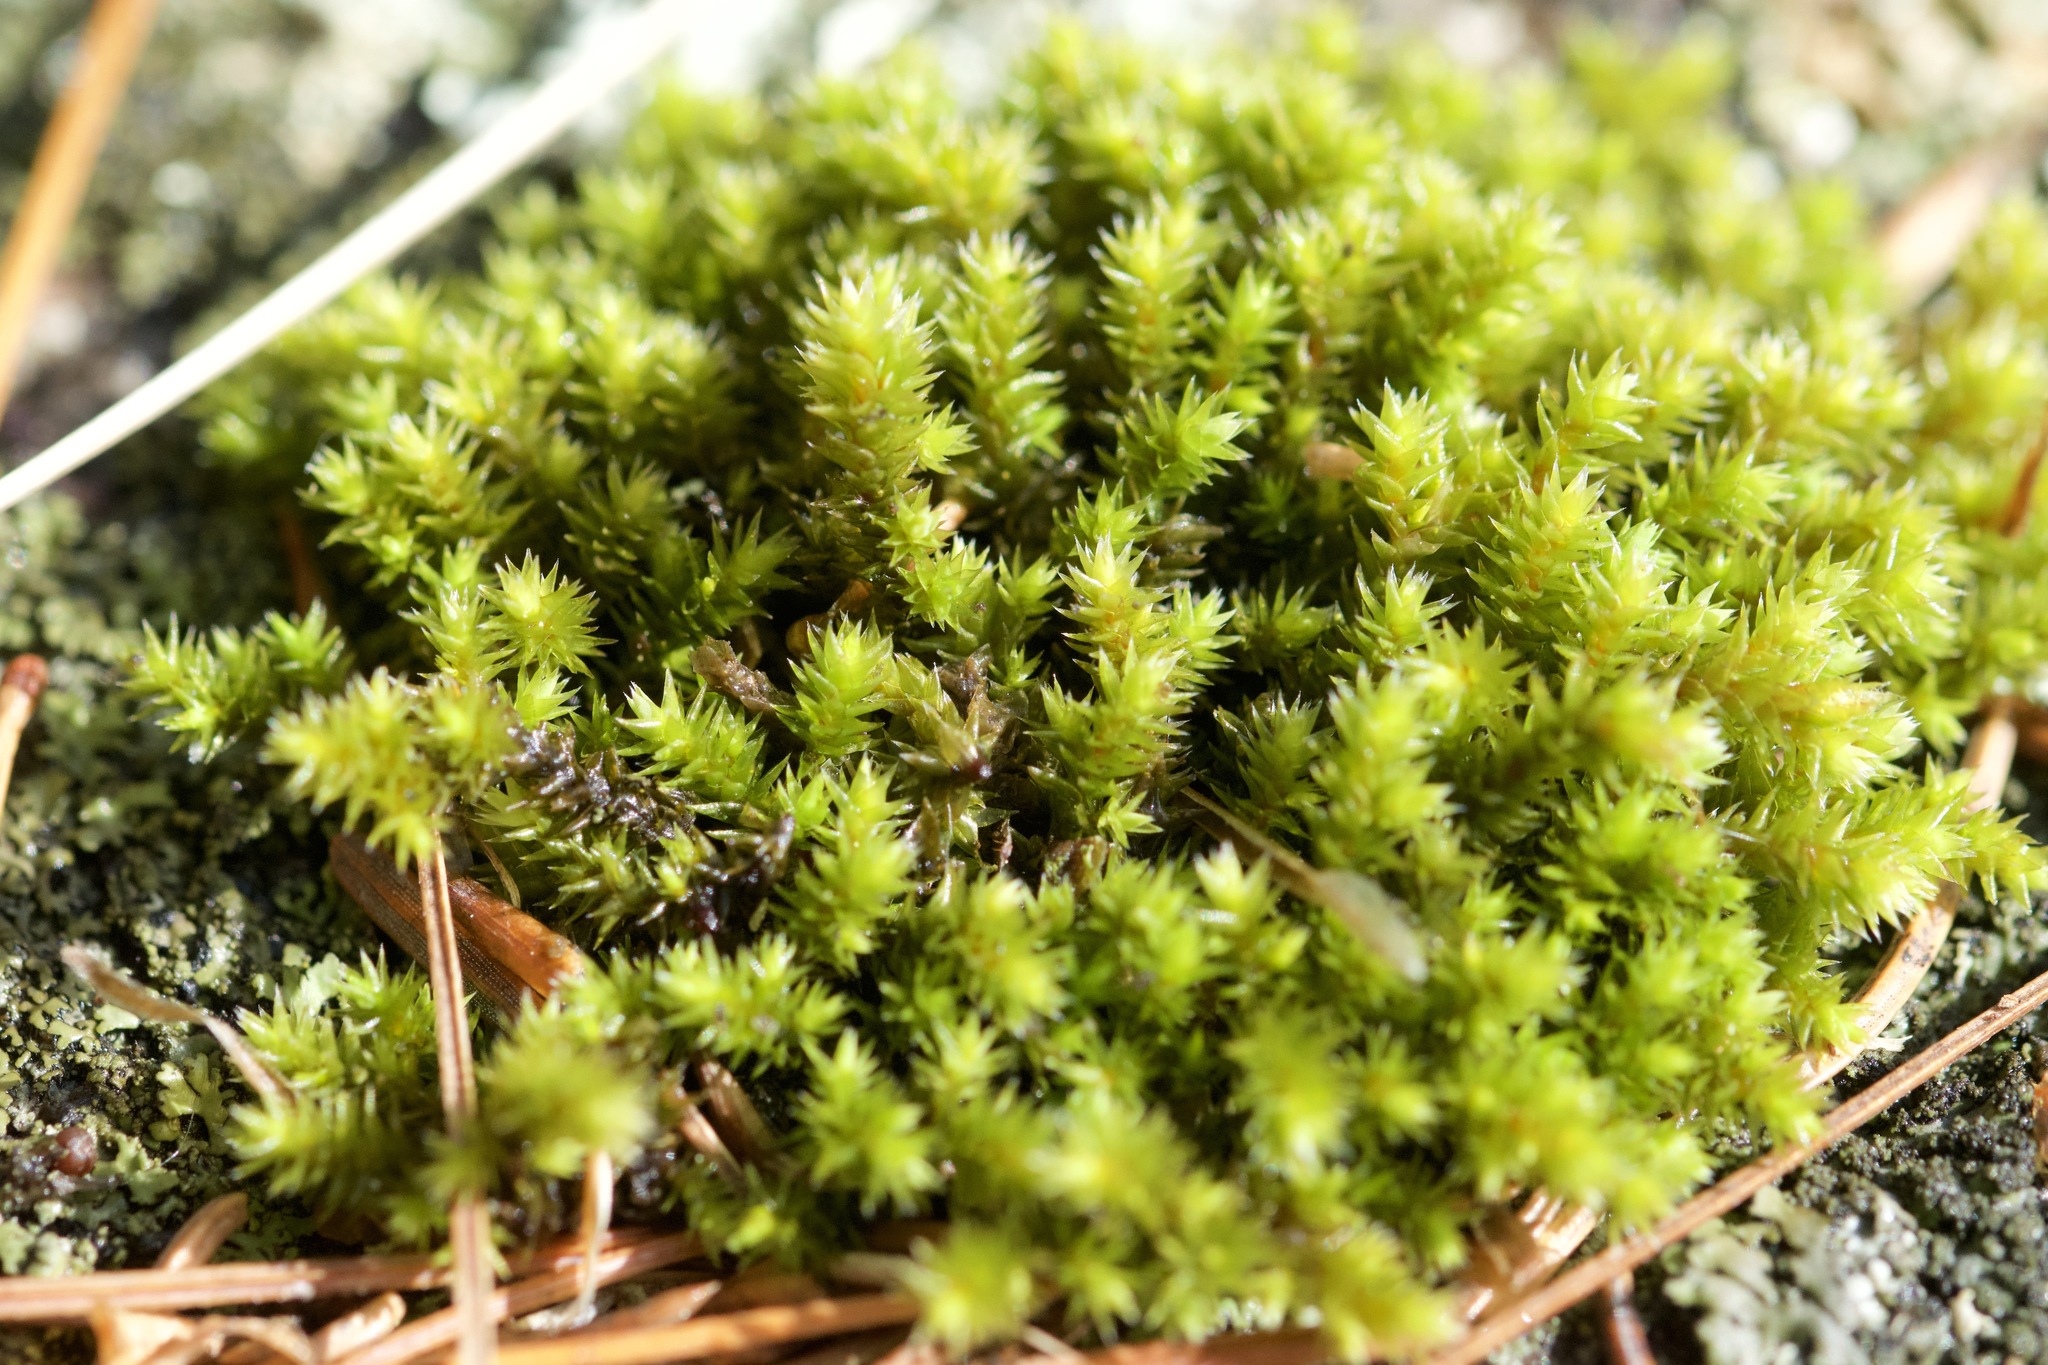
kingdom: Plantae
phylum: Bryophyta
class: Bryopsida
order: Hedwigiales
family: Hedwigiaceae
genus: Hedwigia
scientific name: Hedwigia ciliata
